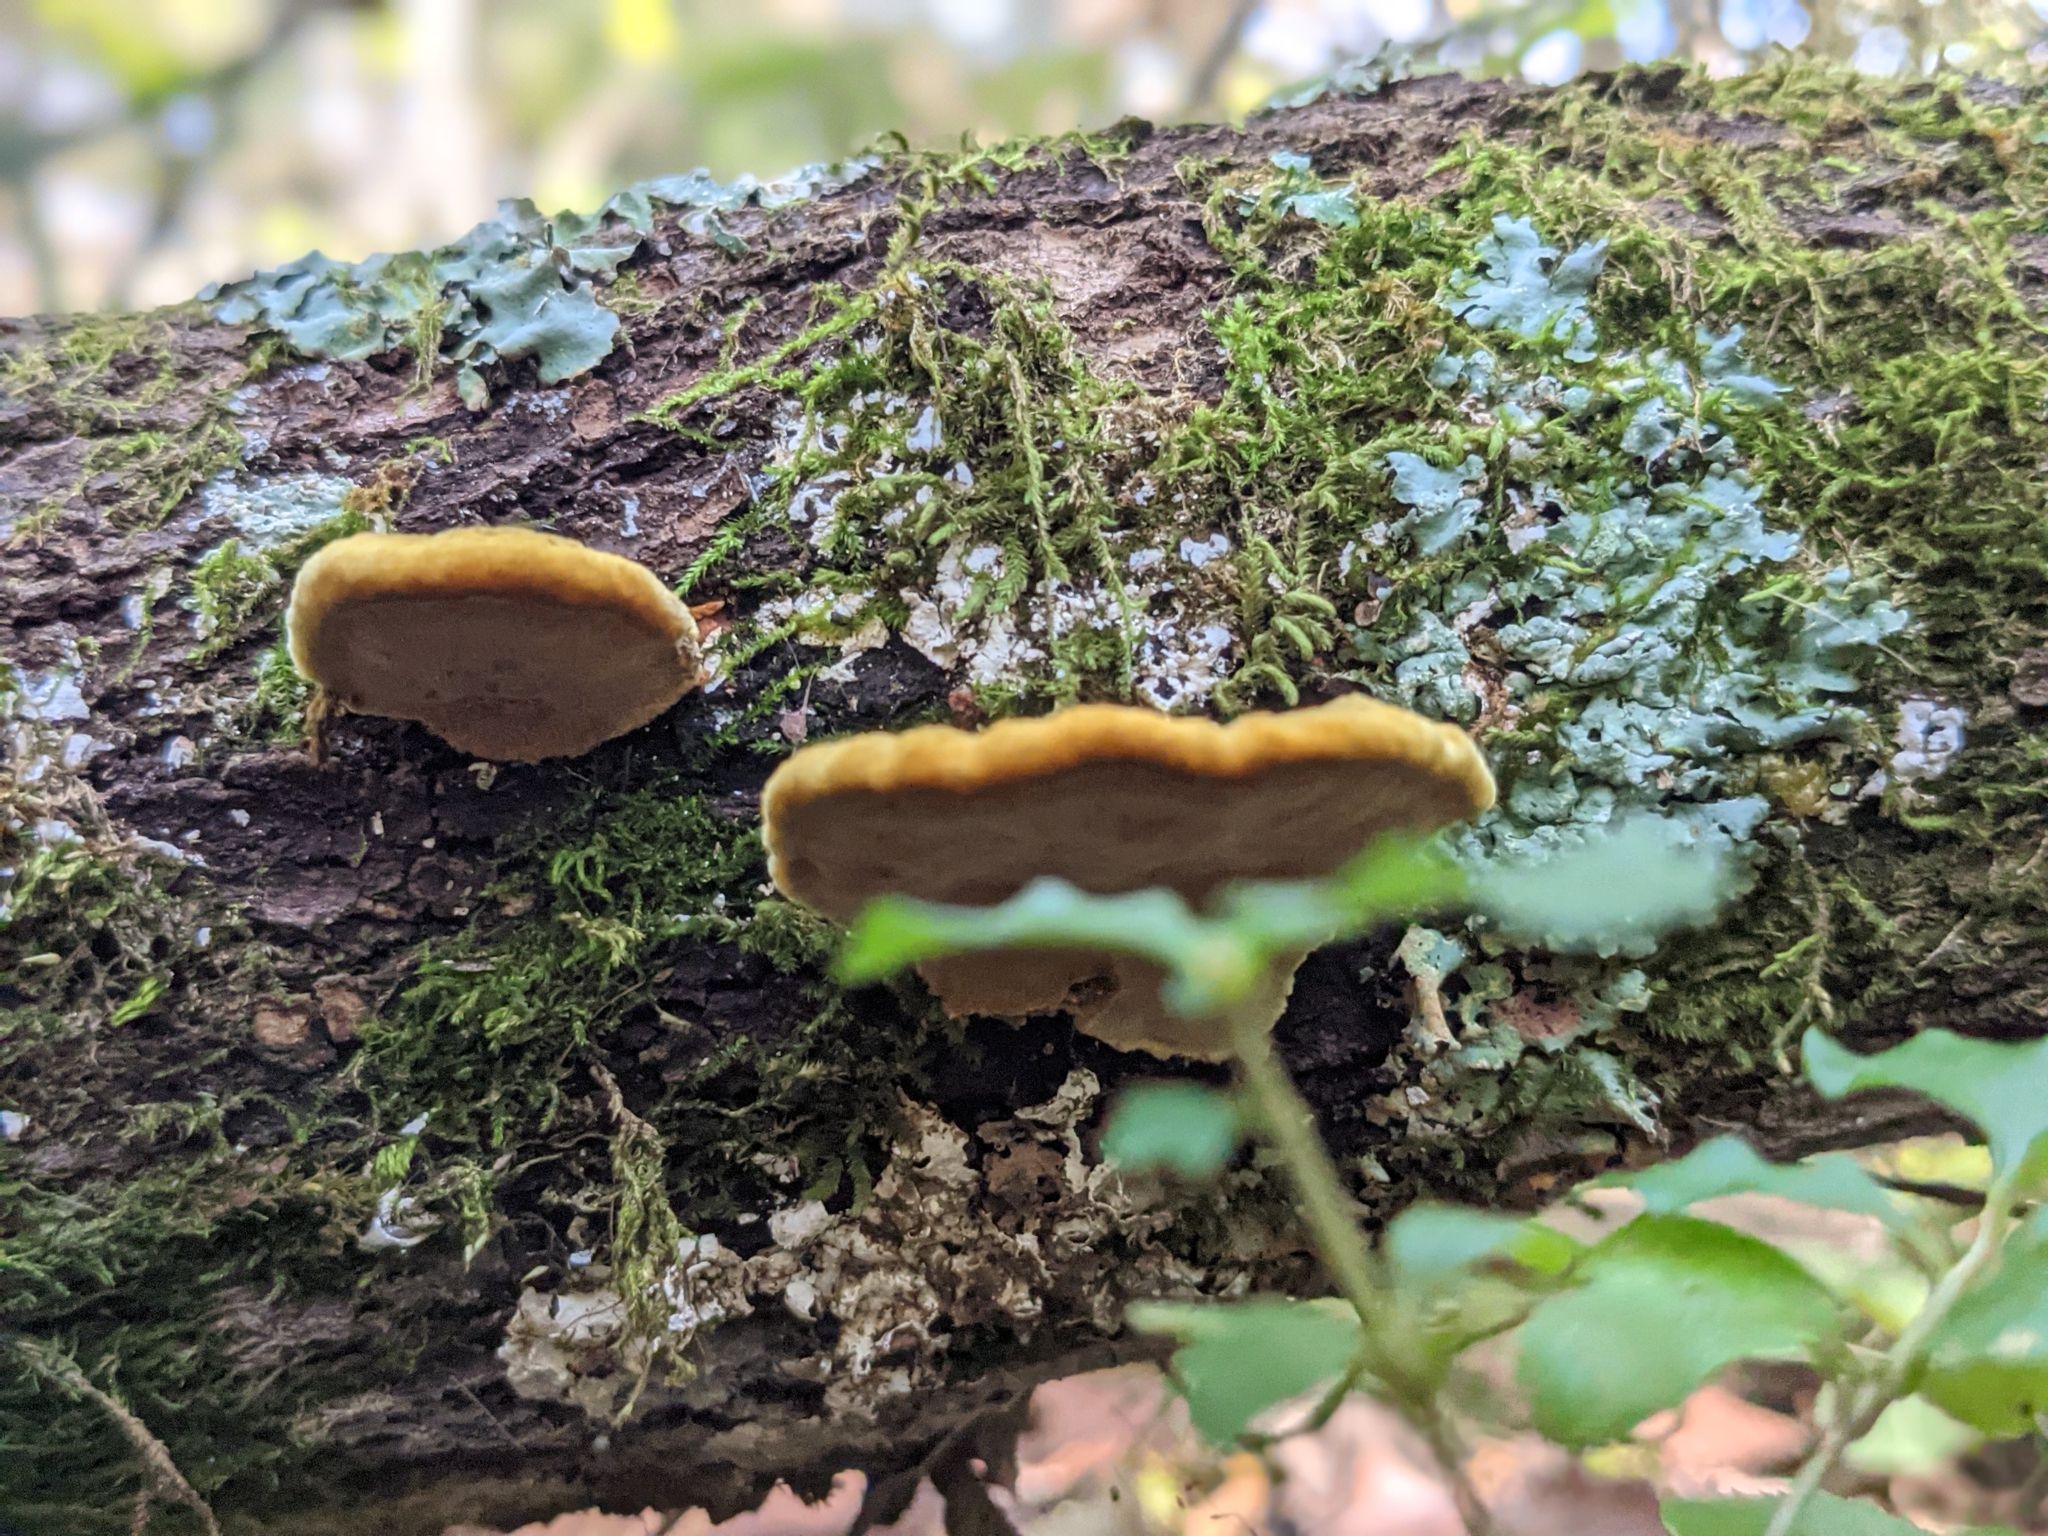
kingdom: Fungi
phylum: Basidiomycota
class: Agaricomycetes
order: Hymenochaetales
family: Hymenochaetaceae
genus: Phellinus
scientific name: Phellinus gilvus
